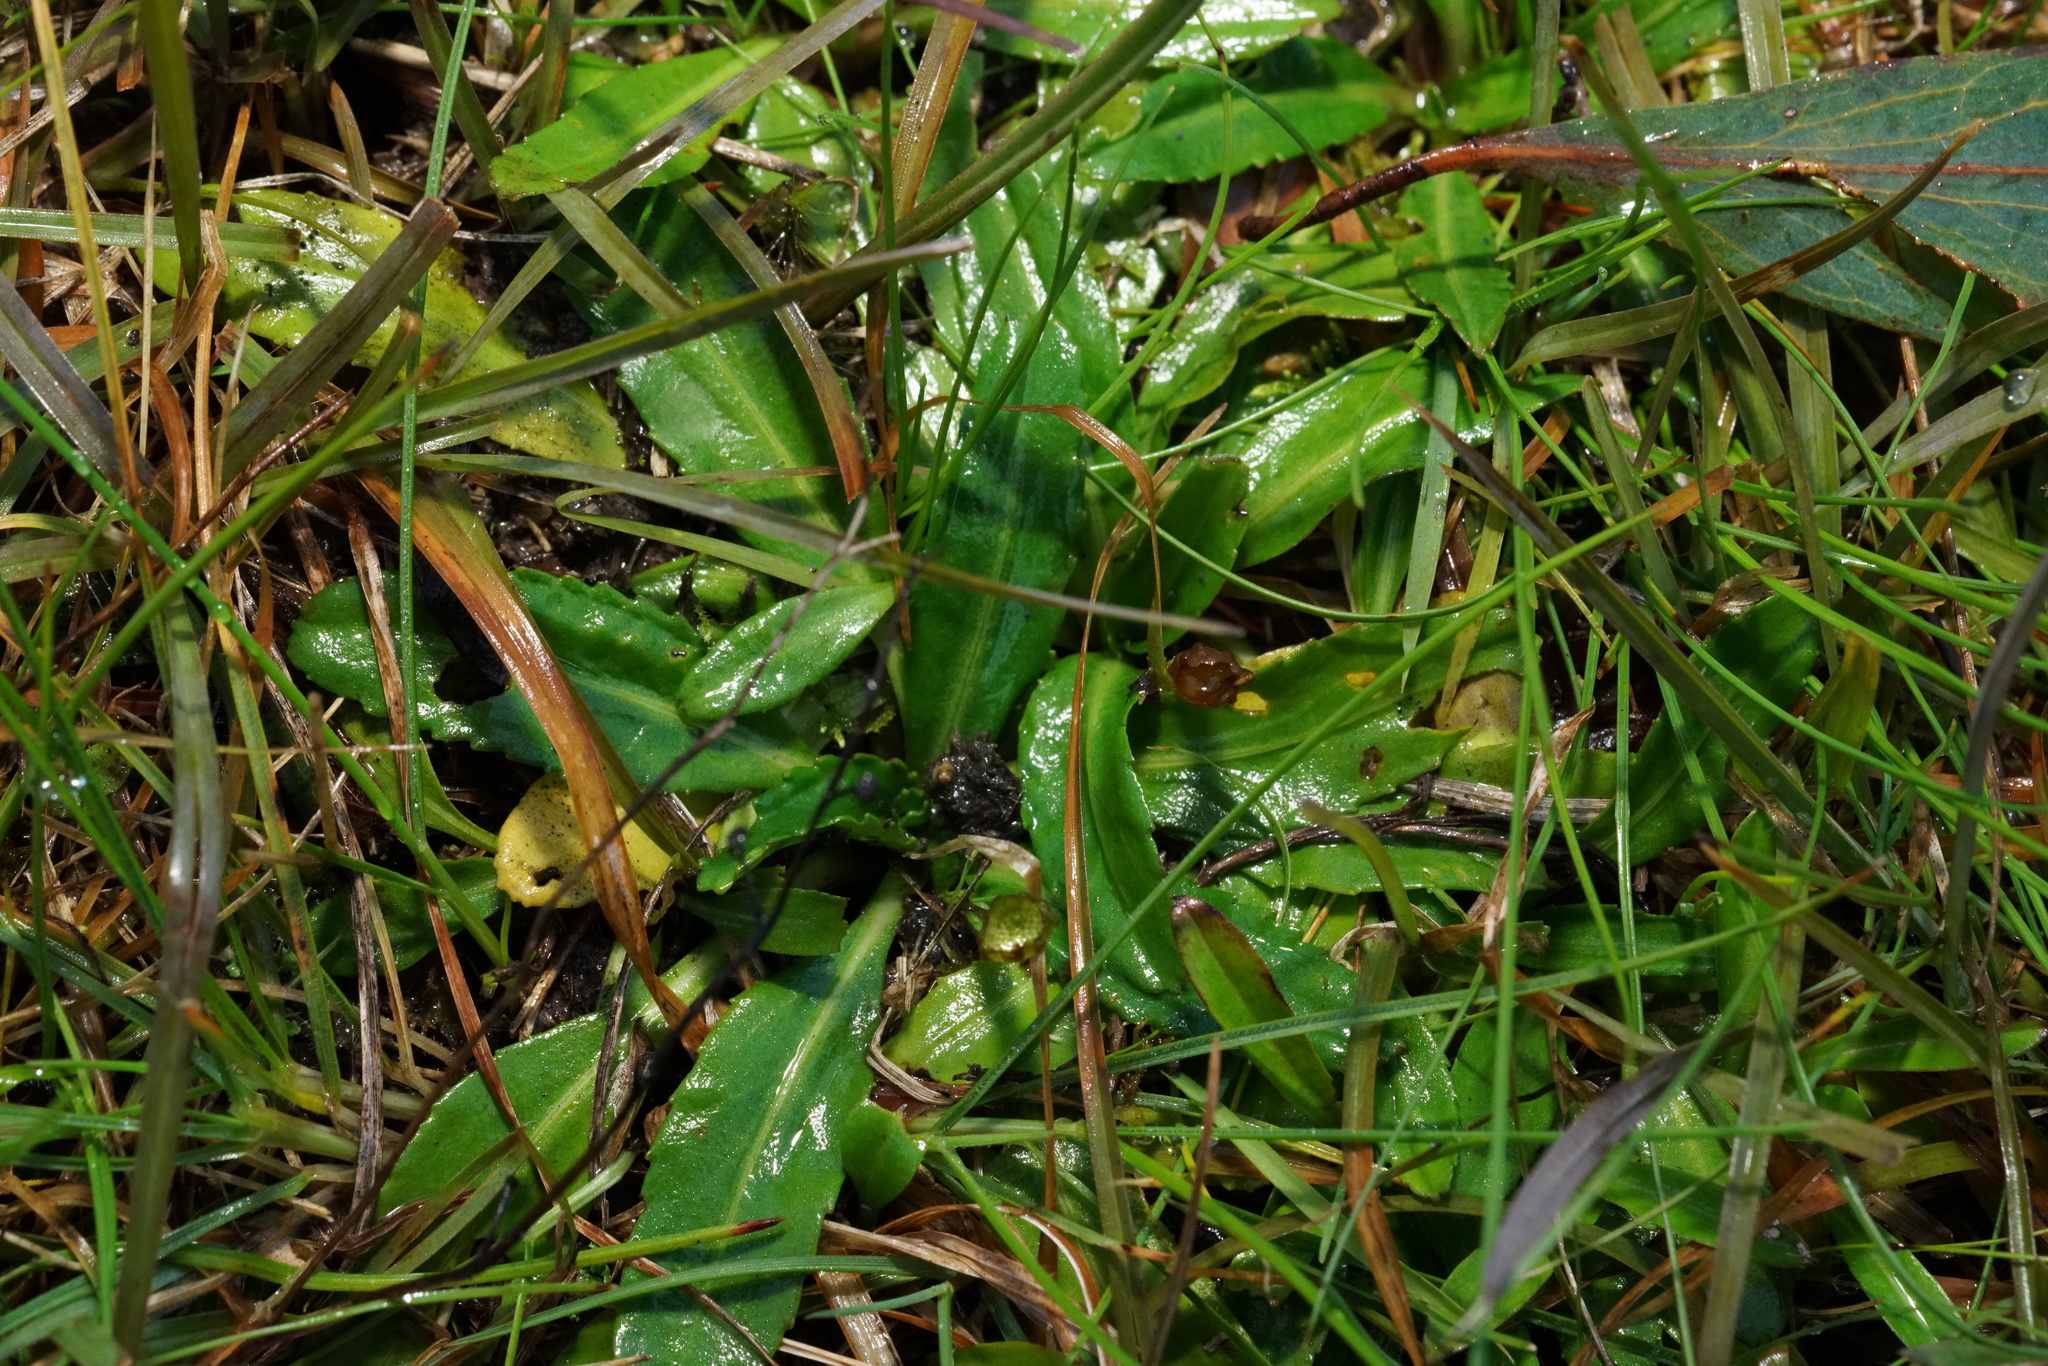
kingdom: Plantae
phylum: Tracheophyta
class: Magnoliopsida
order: Asterales
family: Asteraceae
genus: Solenogyne
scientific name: Solenogyne dominii
